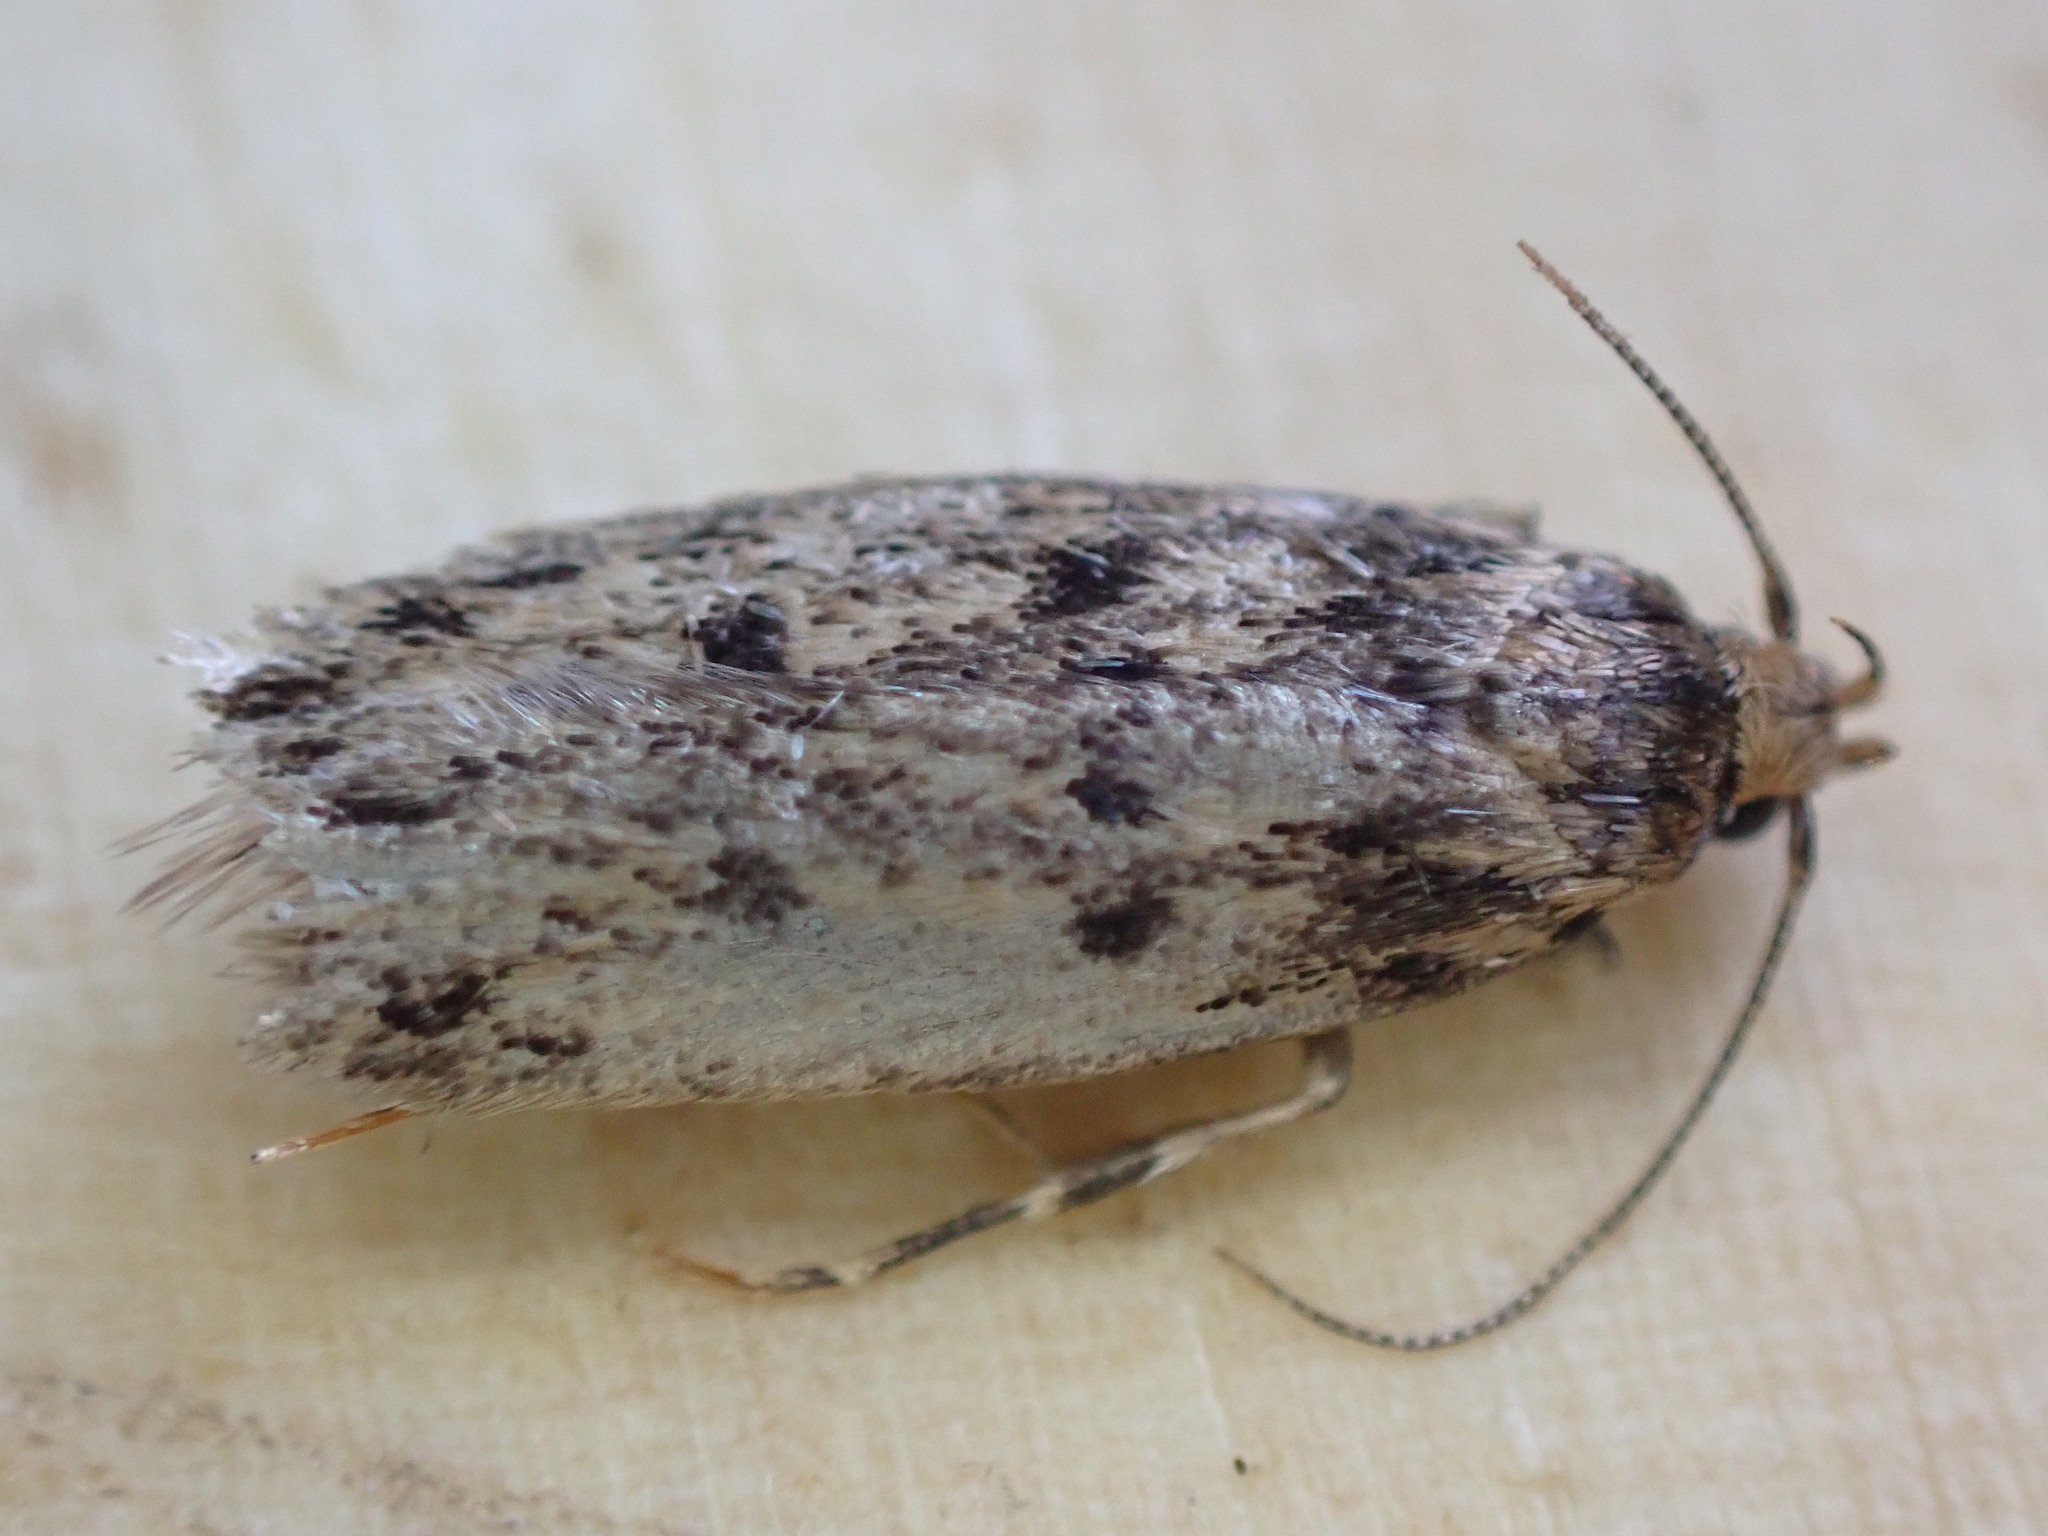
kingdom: Animalia
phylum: Arthropoda
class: Insecta
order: Lepidoptera
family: Oecophoridae
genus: Hofmannophila
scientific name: Hofmannophila pseudospretella
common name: Brown house moth
